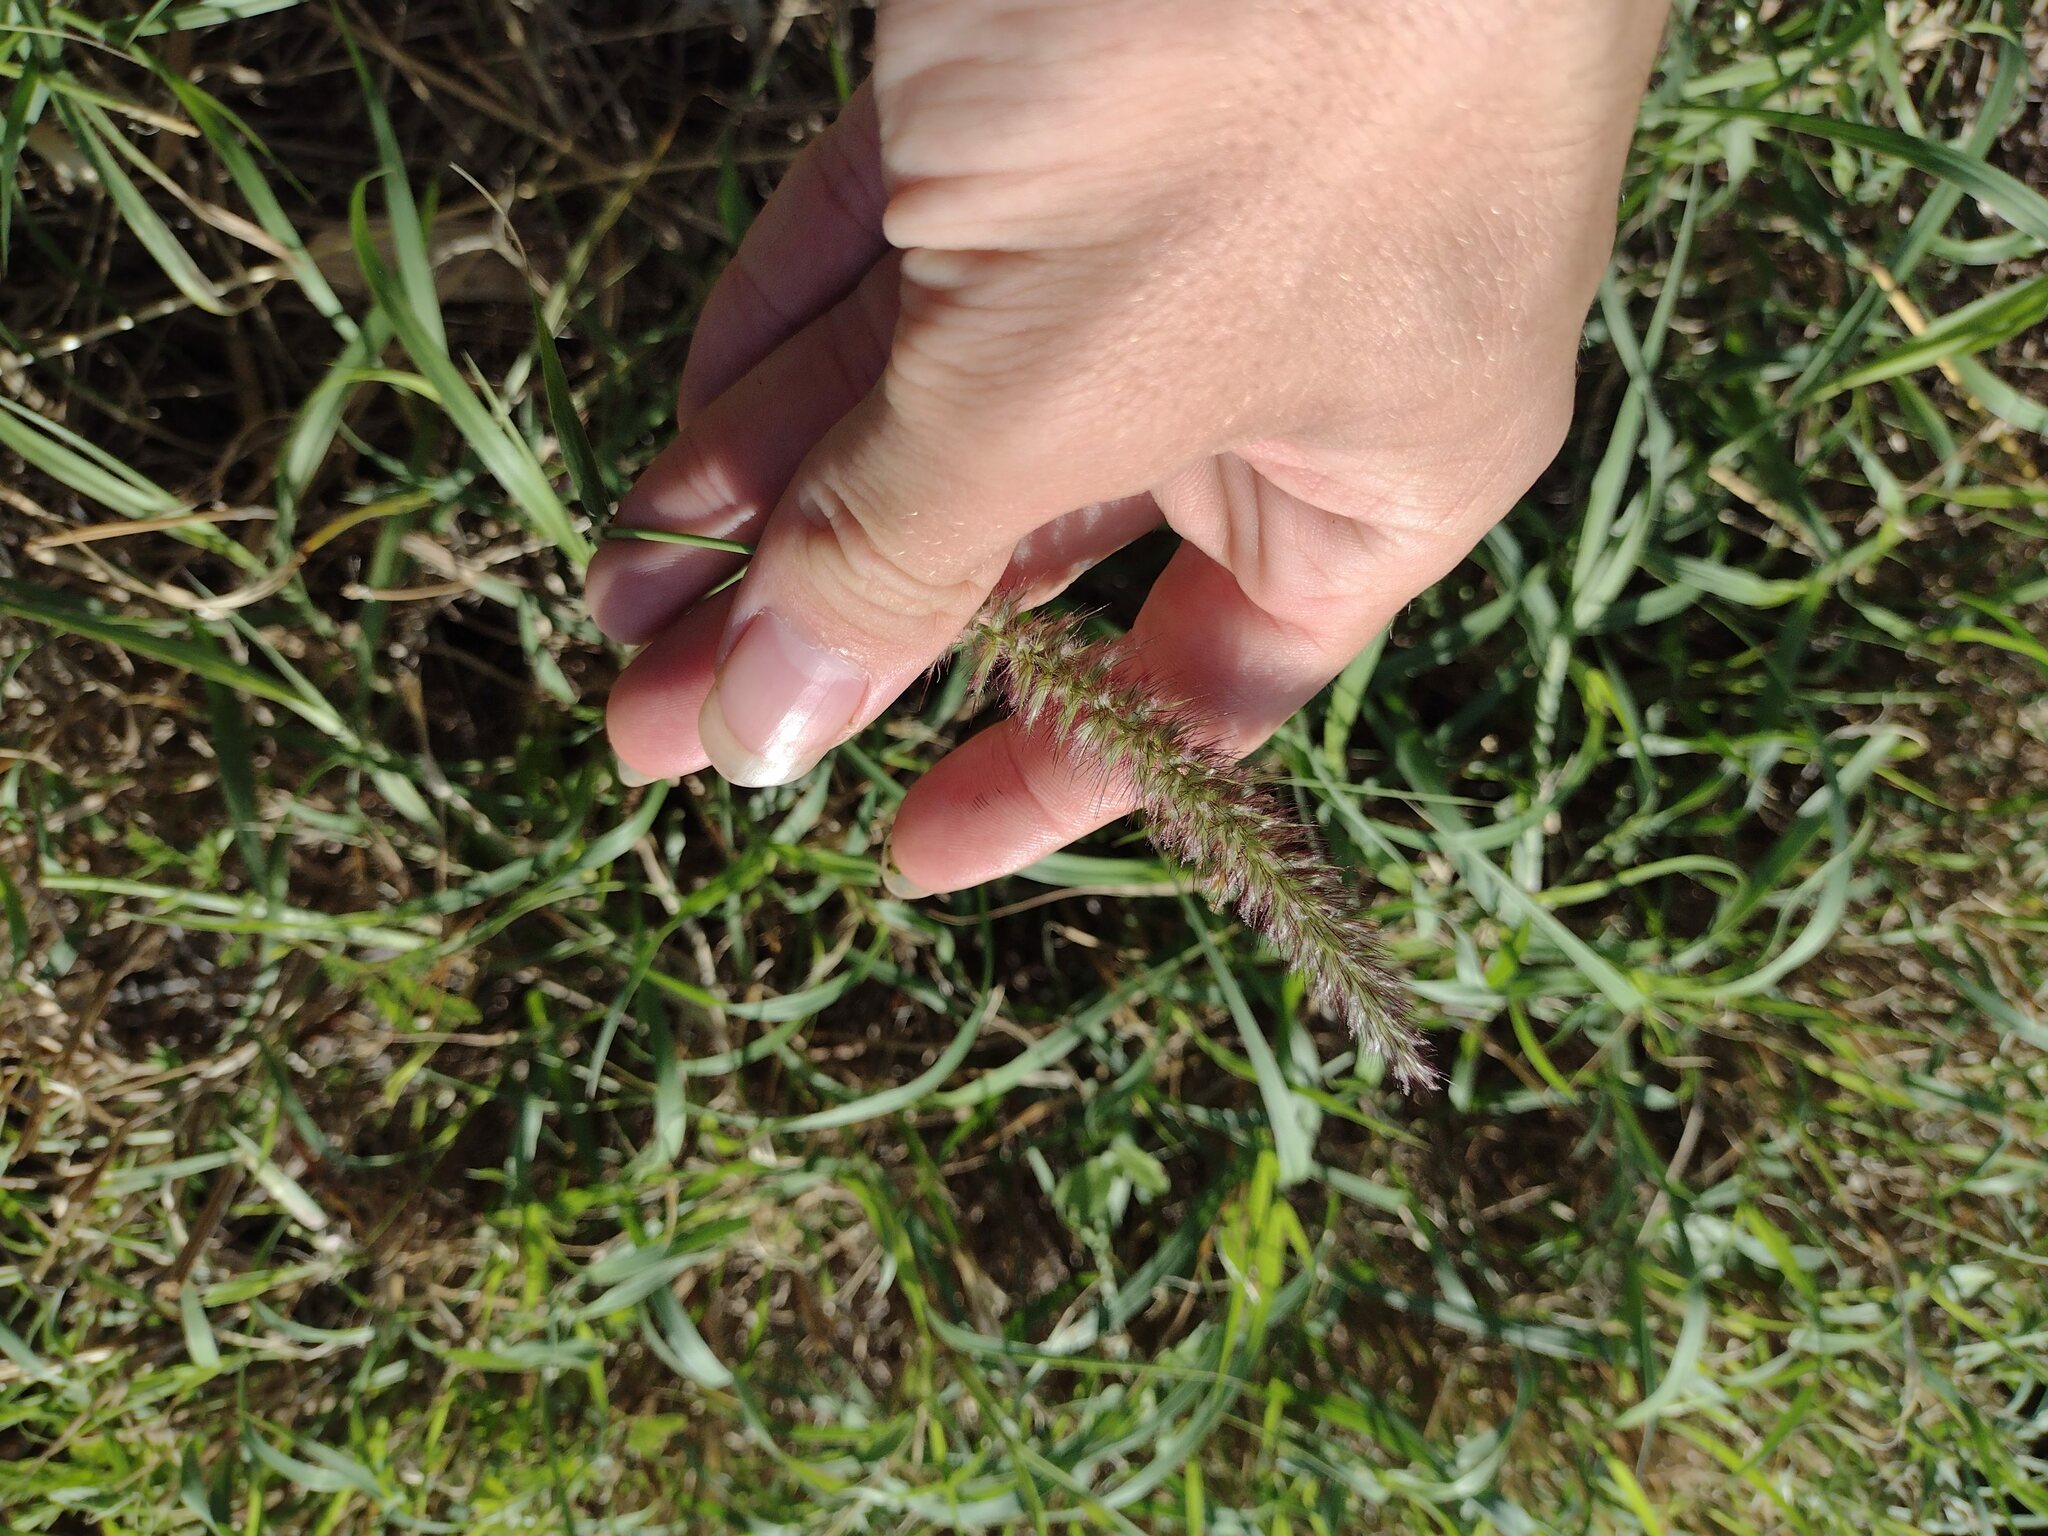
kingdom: Plantae
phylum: Tracheophyta
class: Liliopsida
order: Poales
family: Poaceae
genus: Cenchrus
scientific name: Cenchrus ciliaris
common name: Buffelgrass
